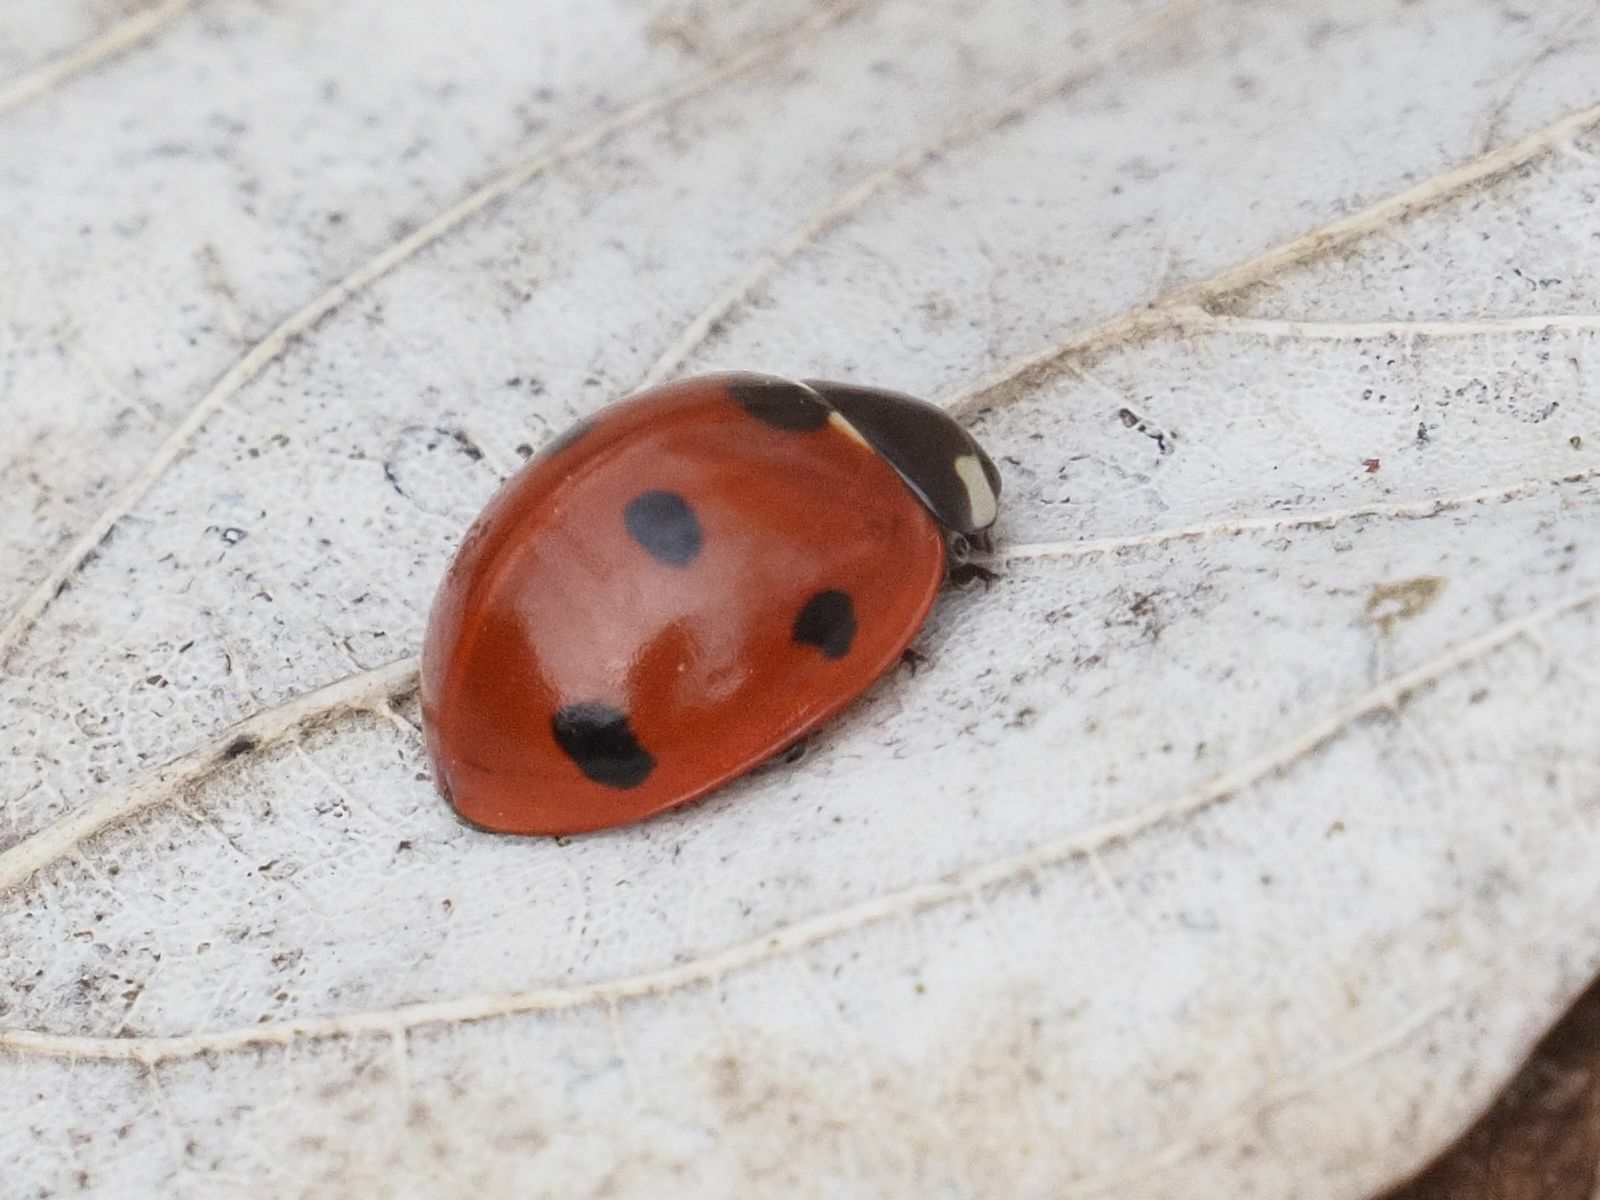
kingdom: Animalia
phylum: Arthropoda
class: Insecta
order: Coleoptera
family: Coccinellidae
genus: Coccinella
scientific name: Coccinella septempunctata
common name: Sevenspotted lady beetle
